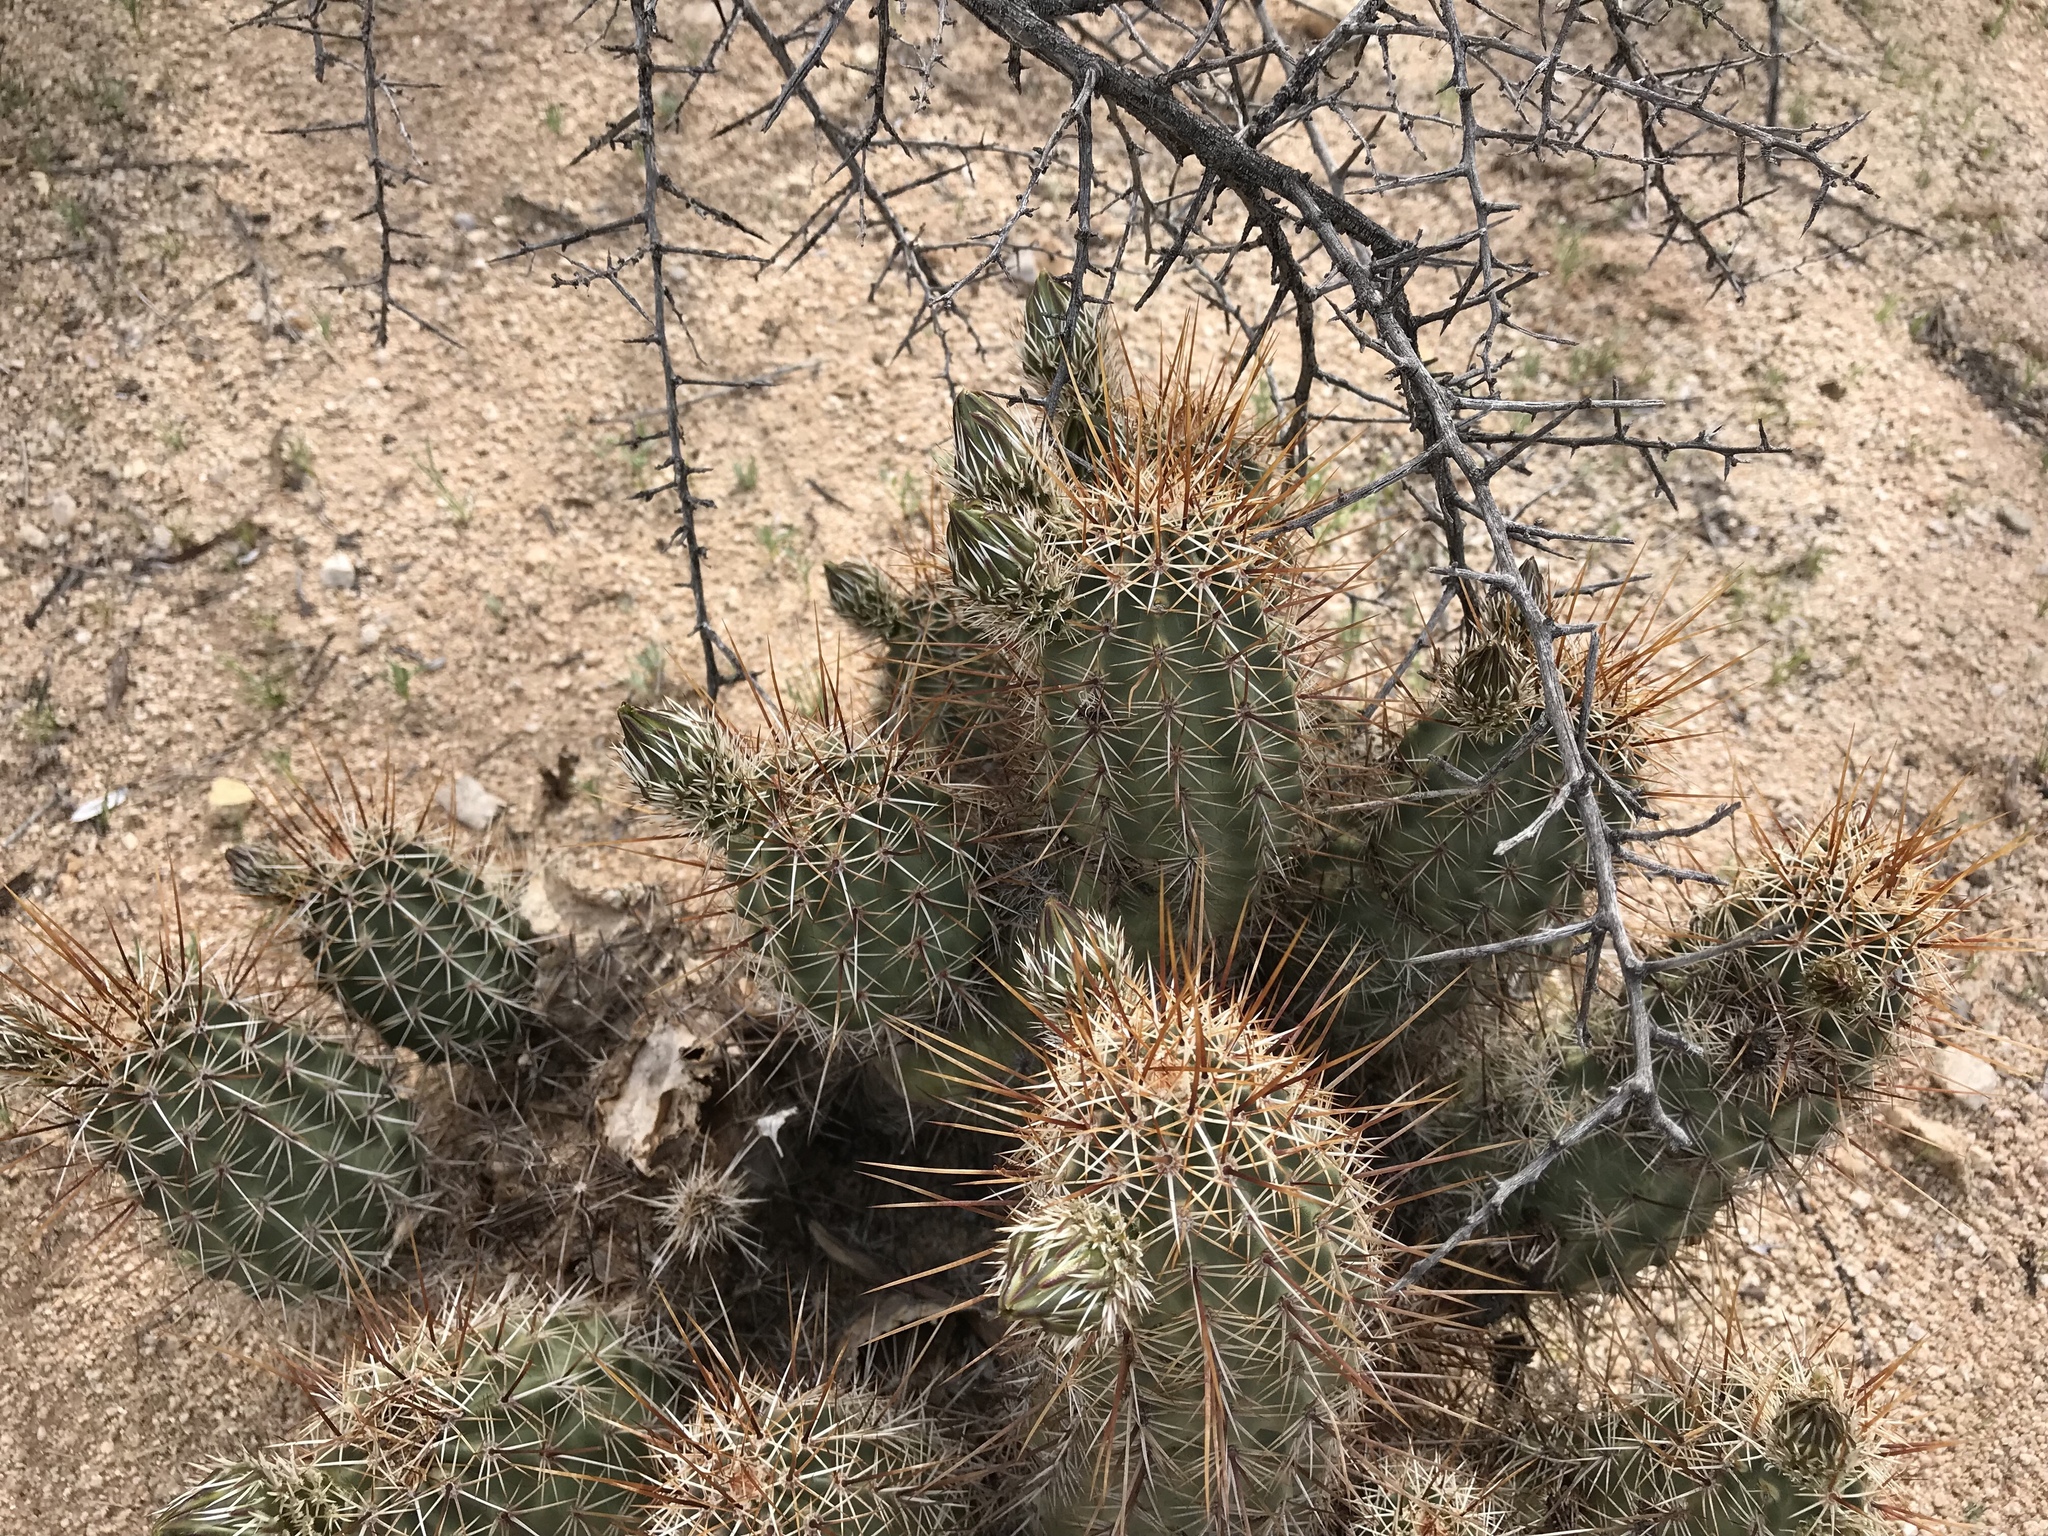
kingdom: Plantae
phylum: Tracheophyta
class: Magnoliopsida
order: Caryophyllales
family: Cactaceae
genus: Echinocereus
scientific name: Echinocereus fasciculatus
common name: Bundle hedgehog
